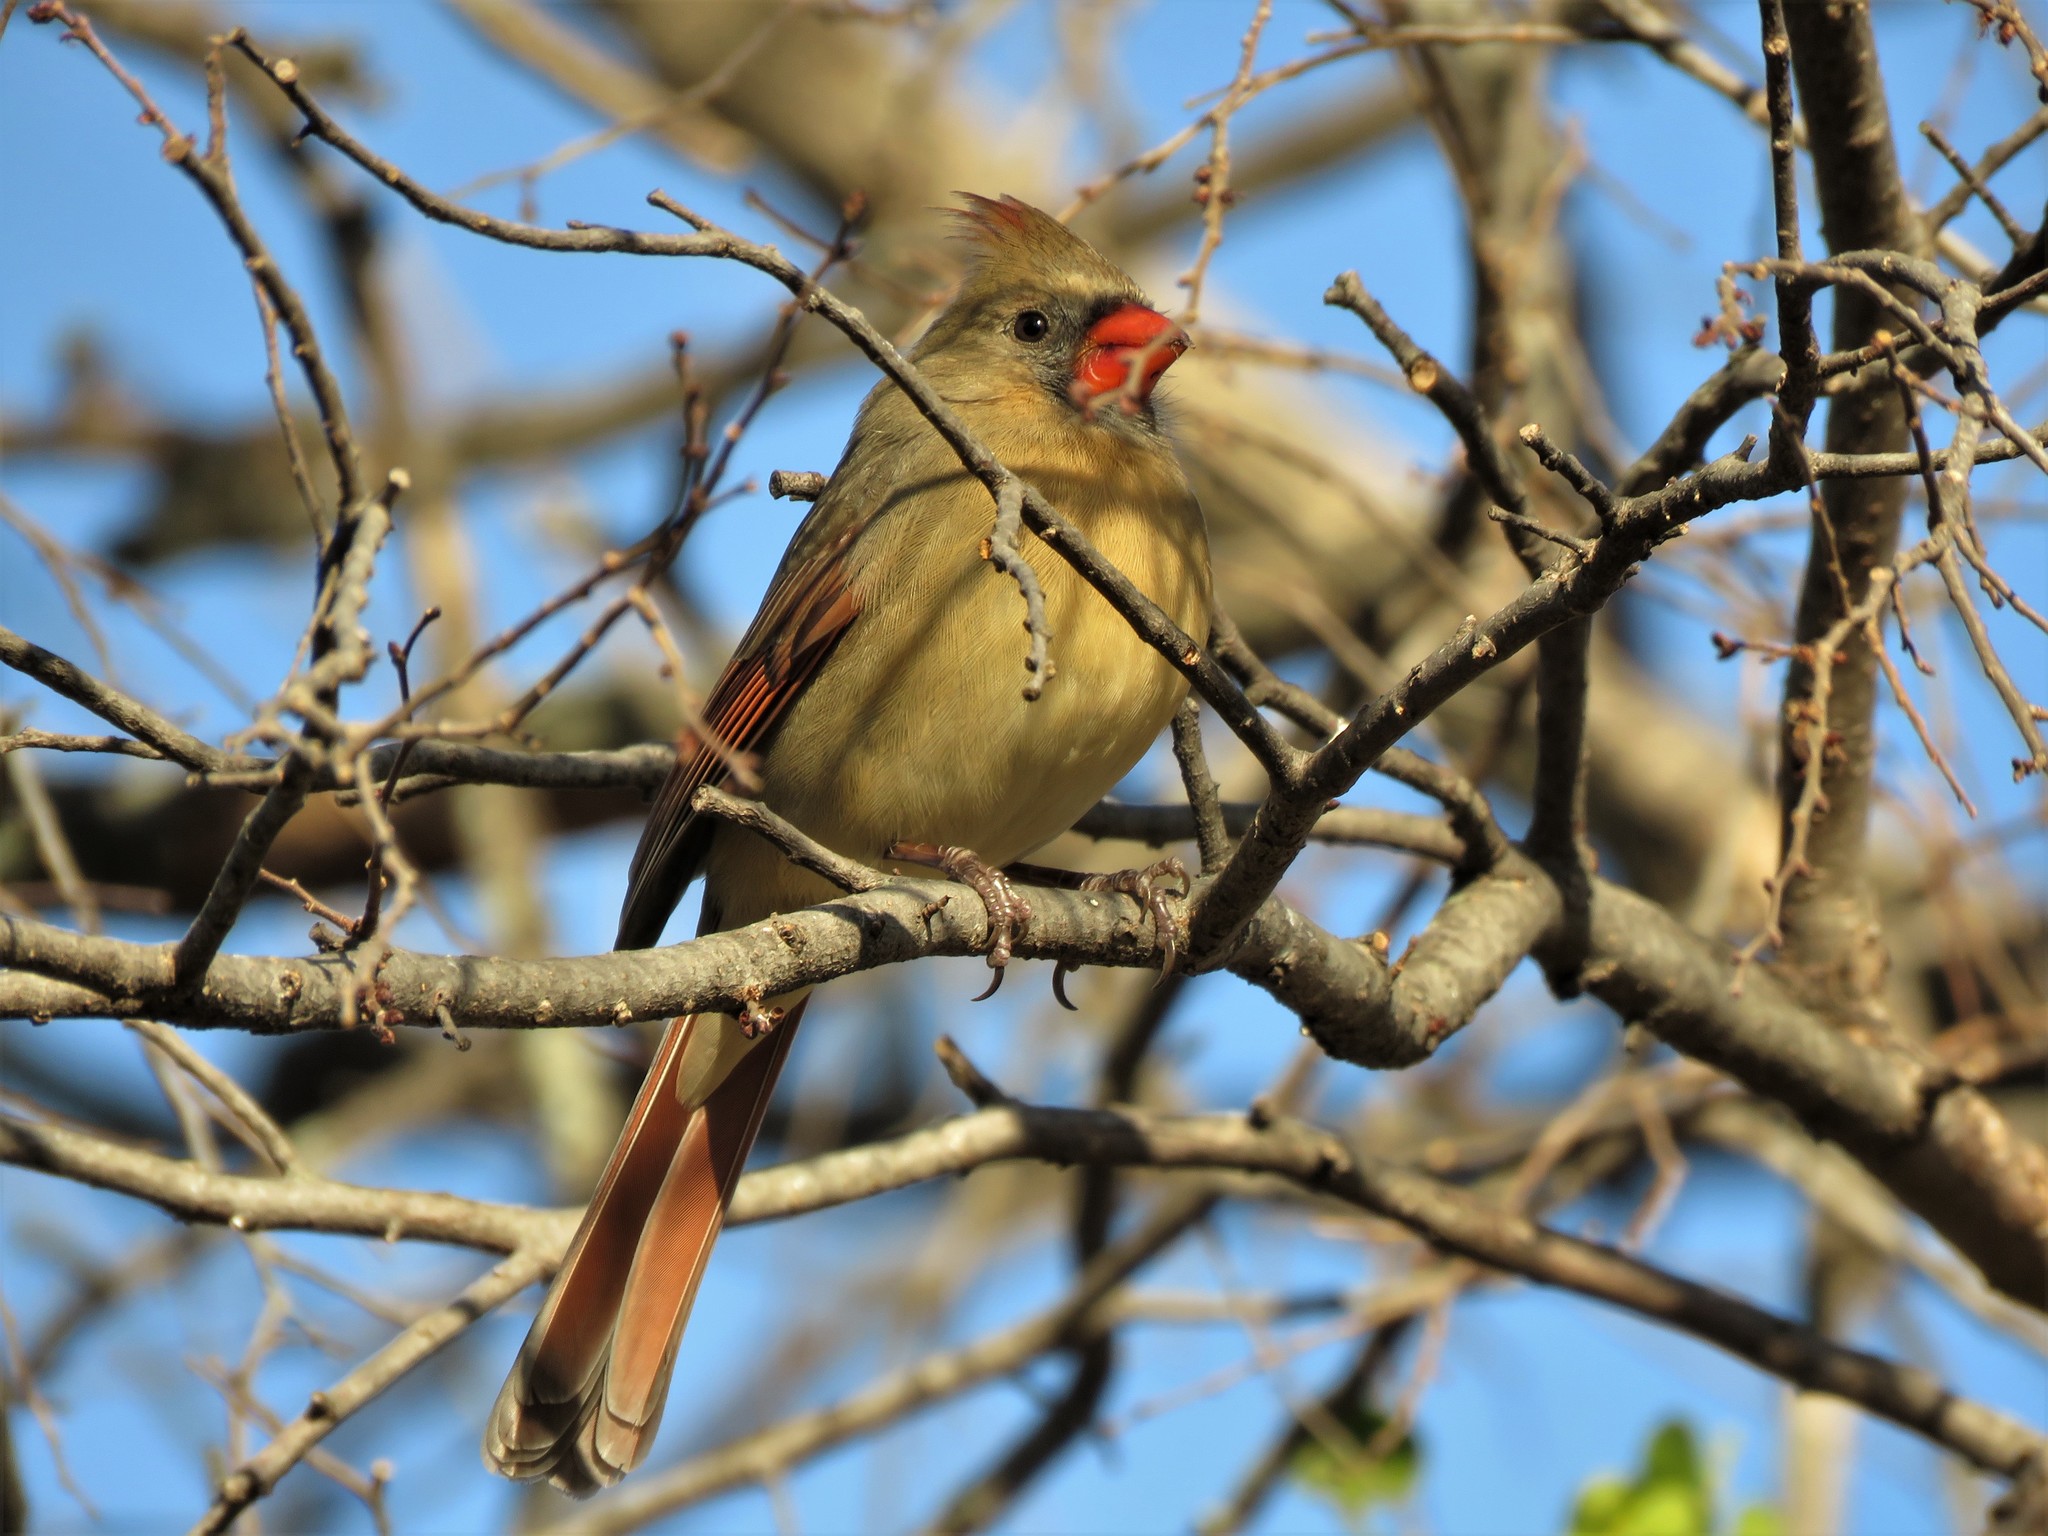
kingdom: Animalia
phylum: Chordata
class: Aves
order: Passeriformes
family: Cardinalidae
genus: Cardinalis
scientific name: Cardinalis cardinalis
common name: Northern cardinal
